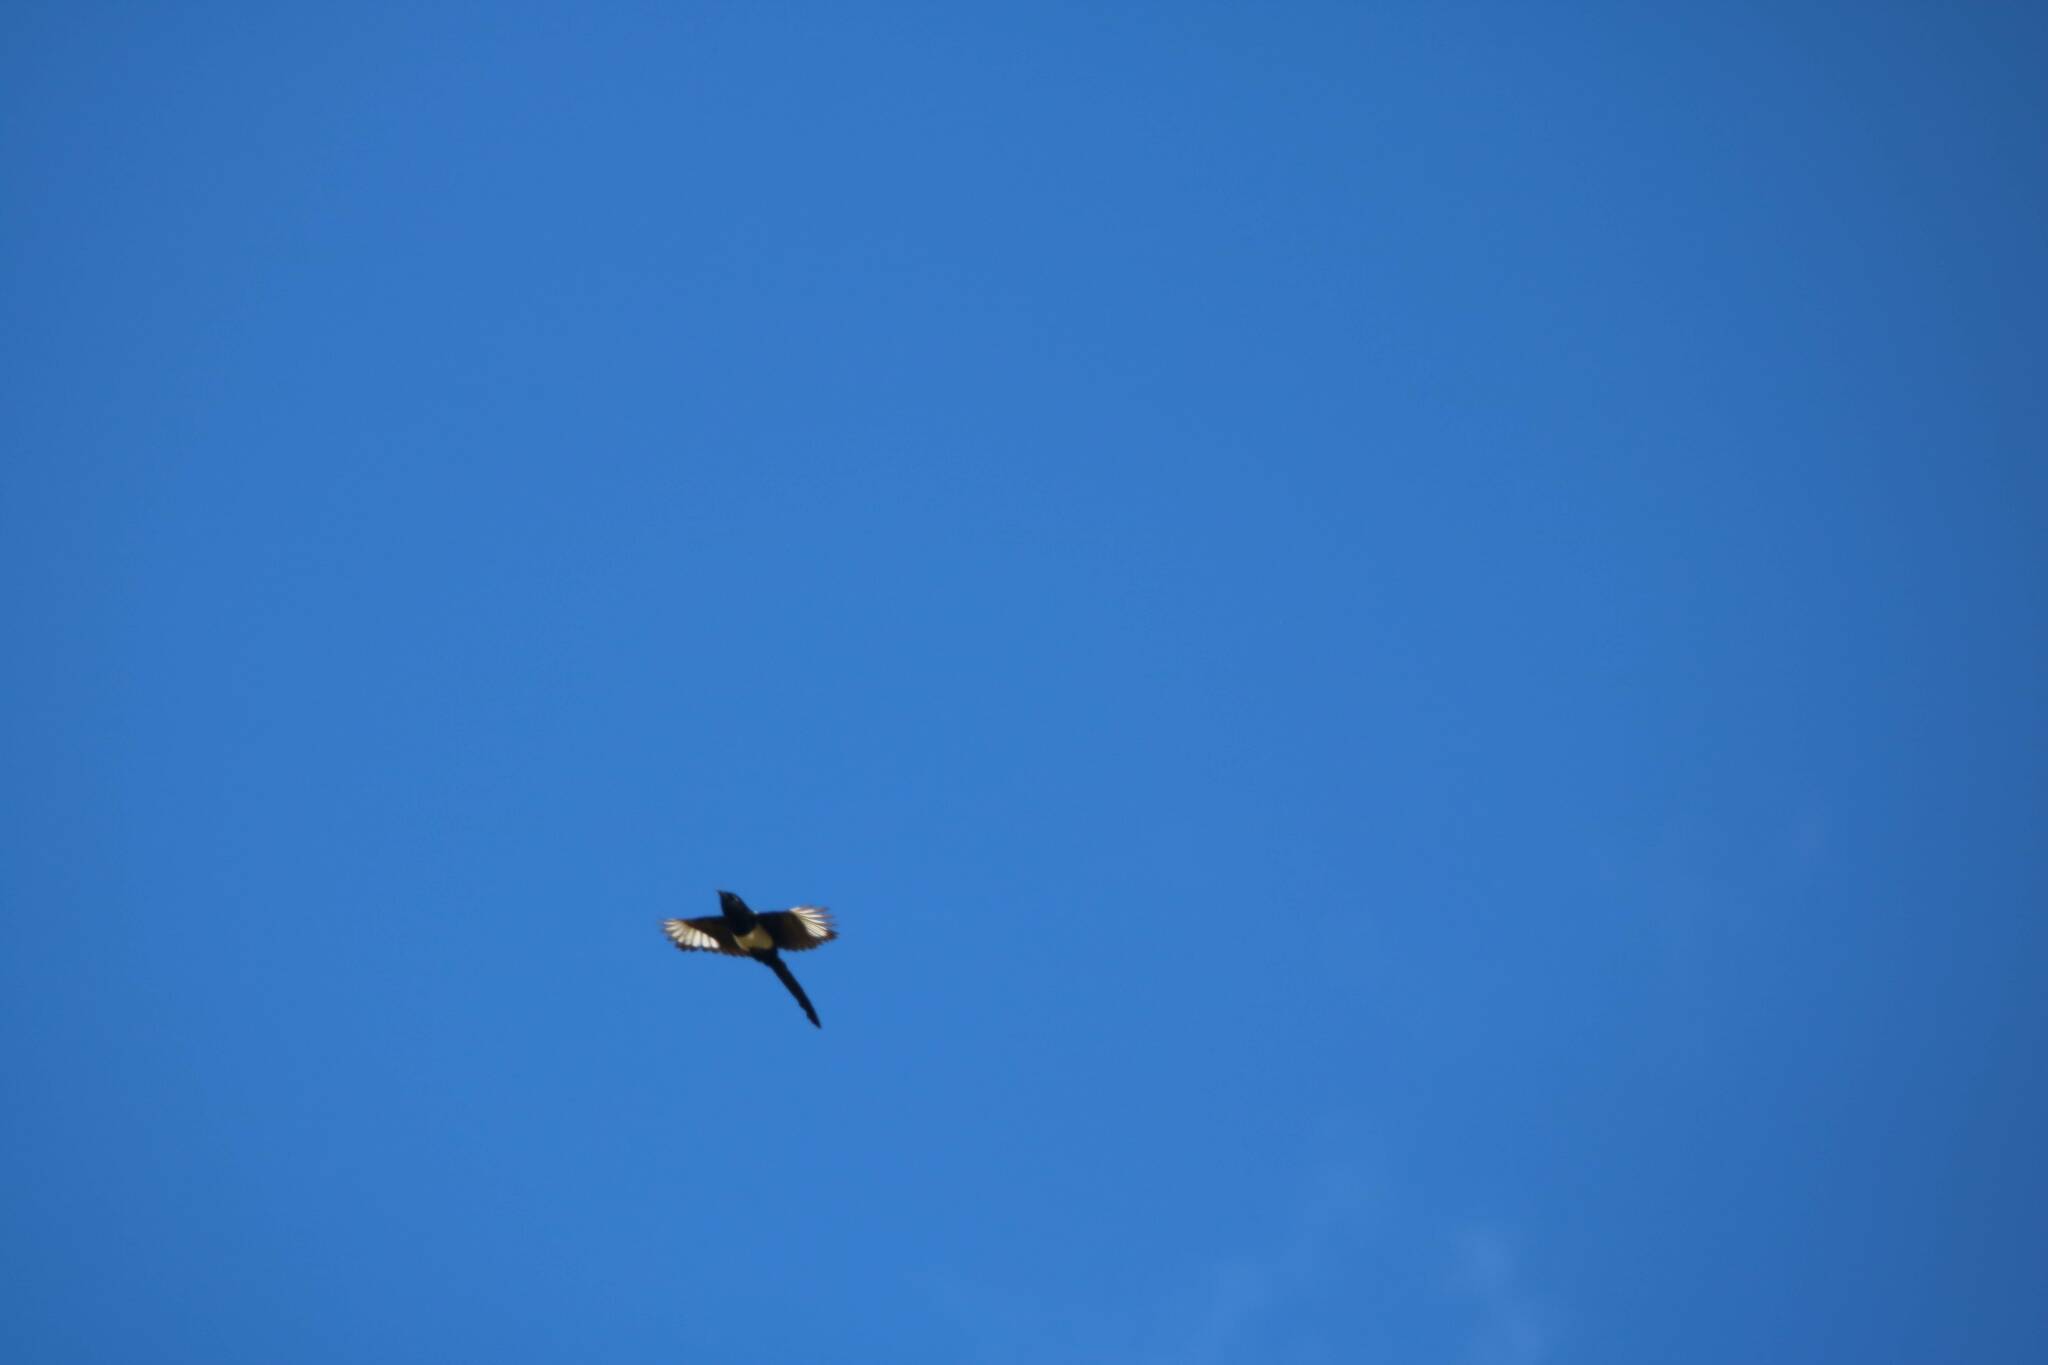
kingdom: Animalia
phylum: Chordata
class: Aves
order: Passeriformes
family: Corvidae
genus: Pica
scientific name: Pica mauritanica
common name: Maghreb magpie
